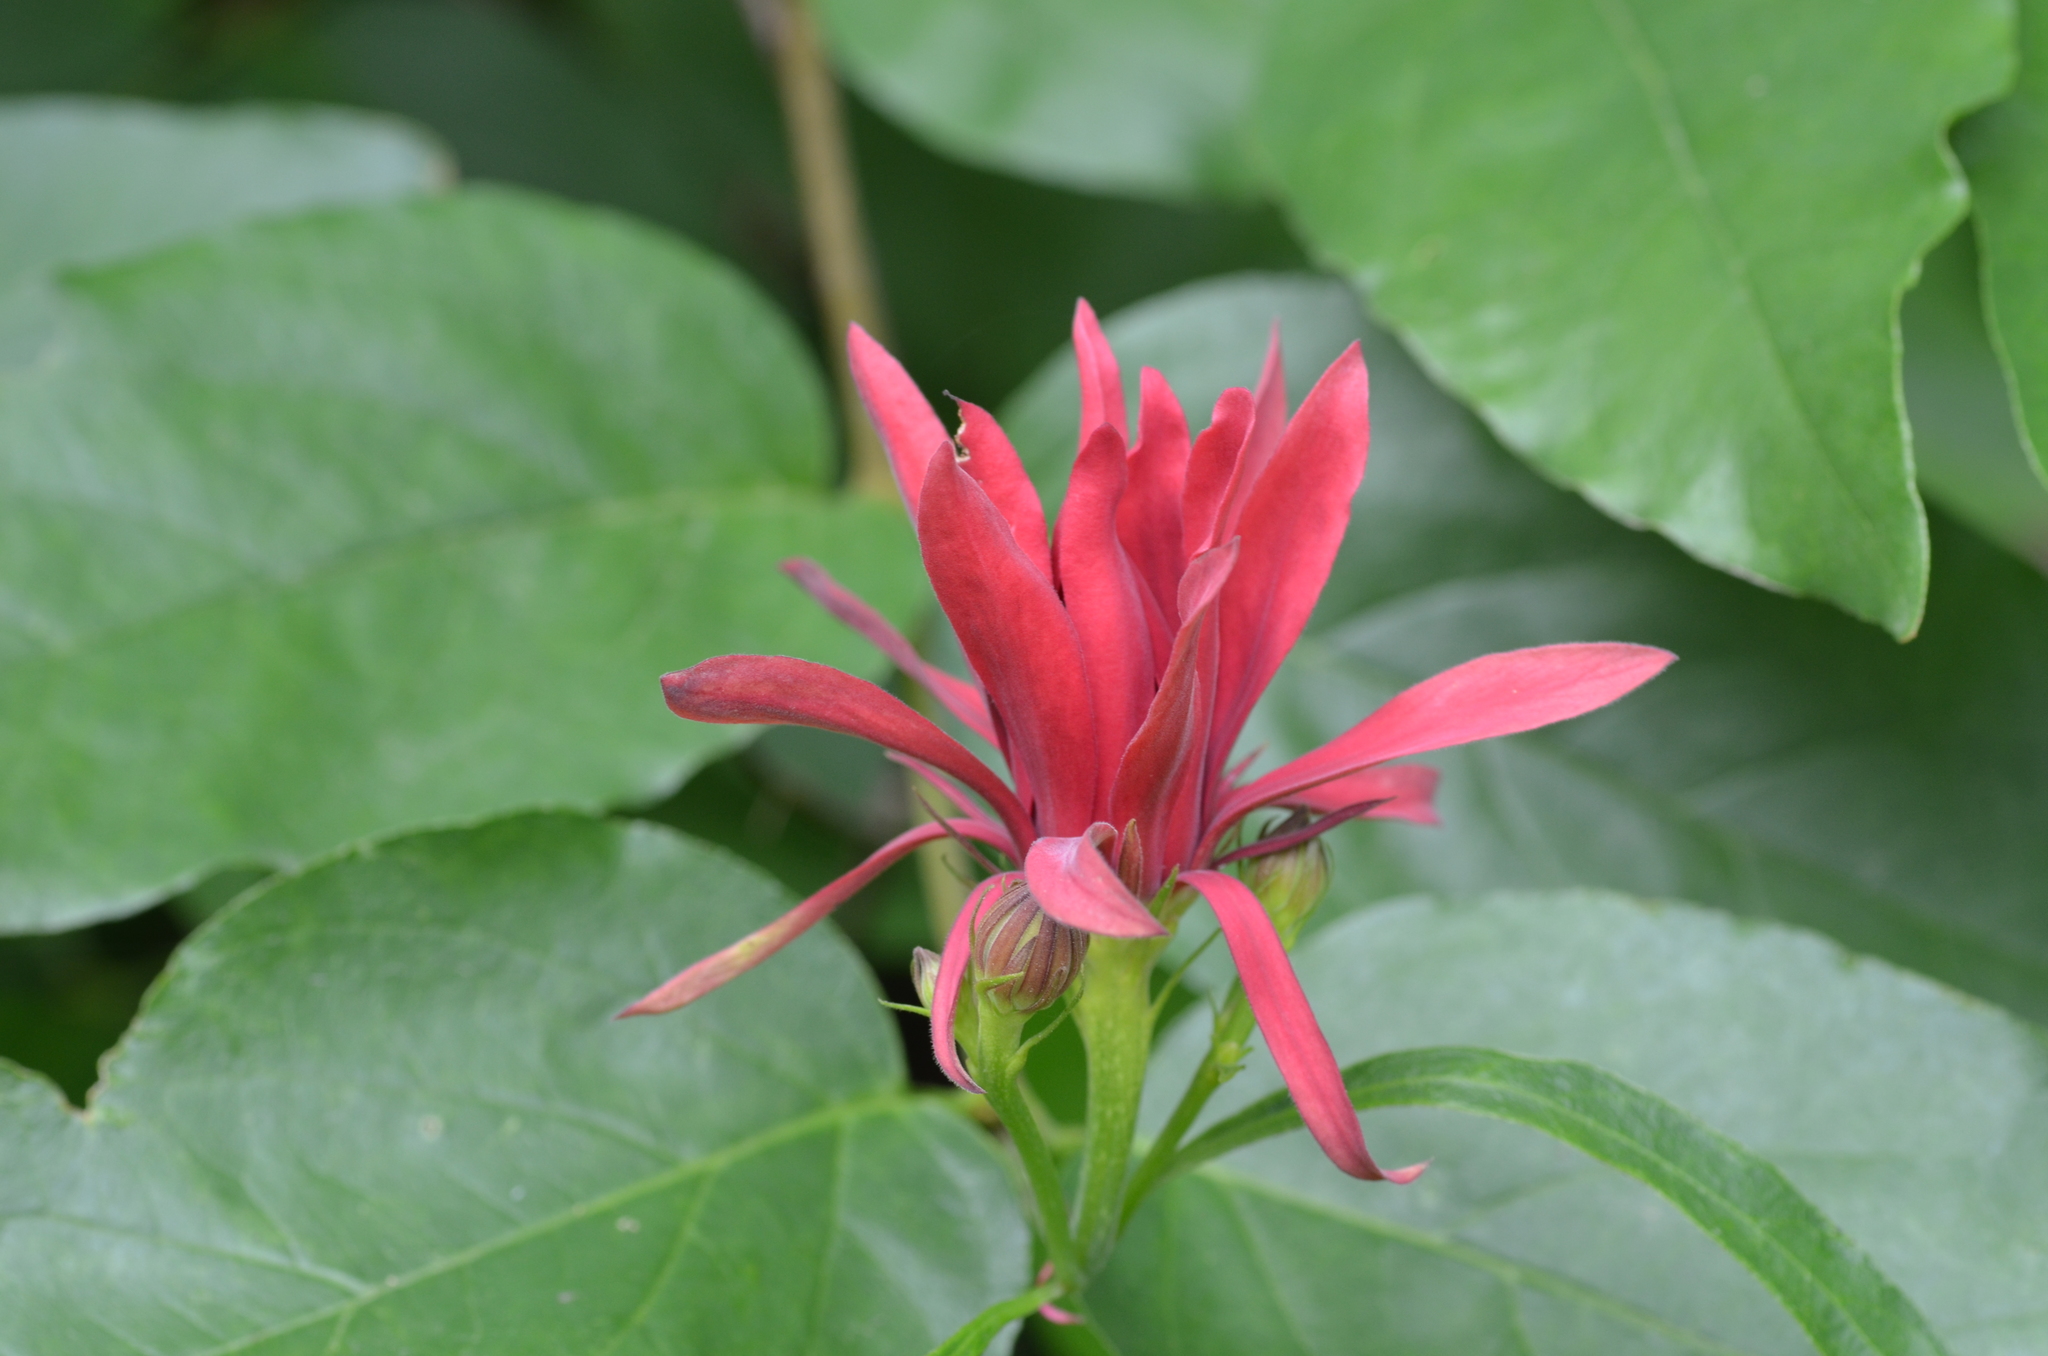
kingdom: Plantae
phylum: Tracheophyta
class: Magnoliopsida
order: Laurales
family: Calycanthaceae
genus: Calycanthus
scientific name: Calycanthus occidentalis
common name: California spicebush
